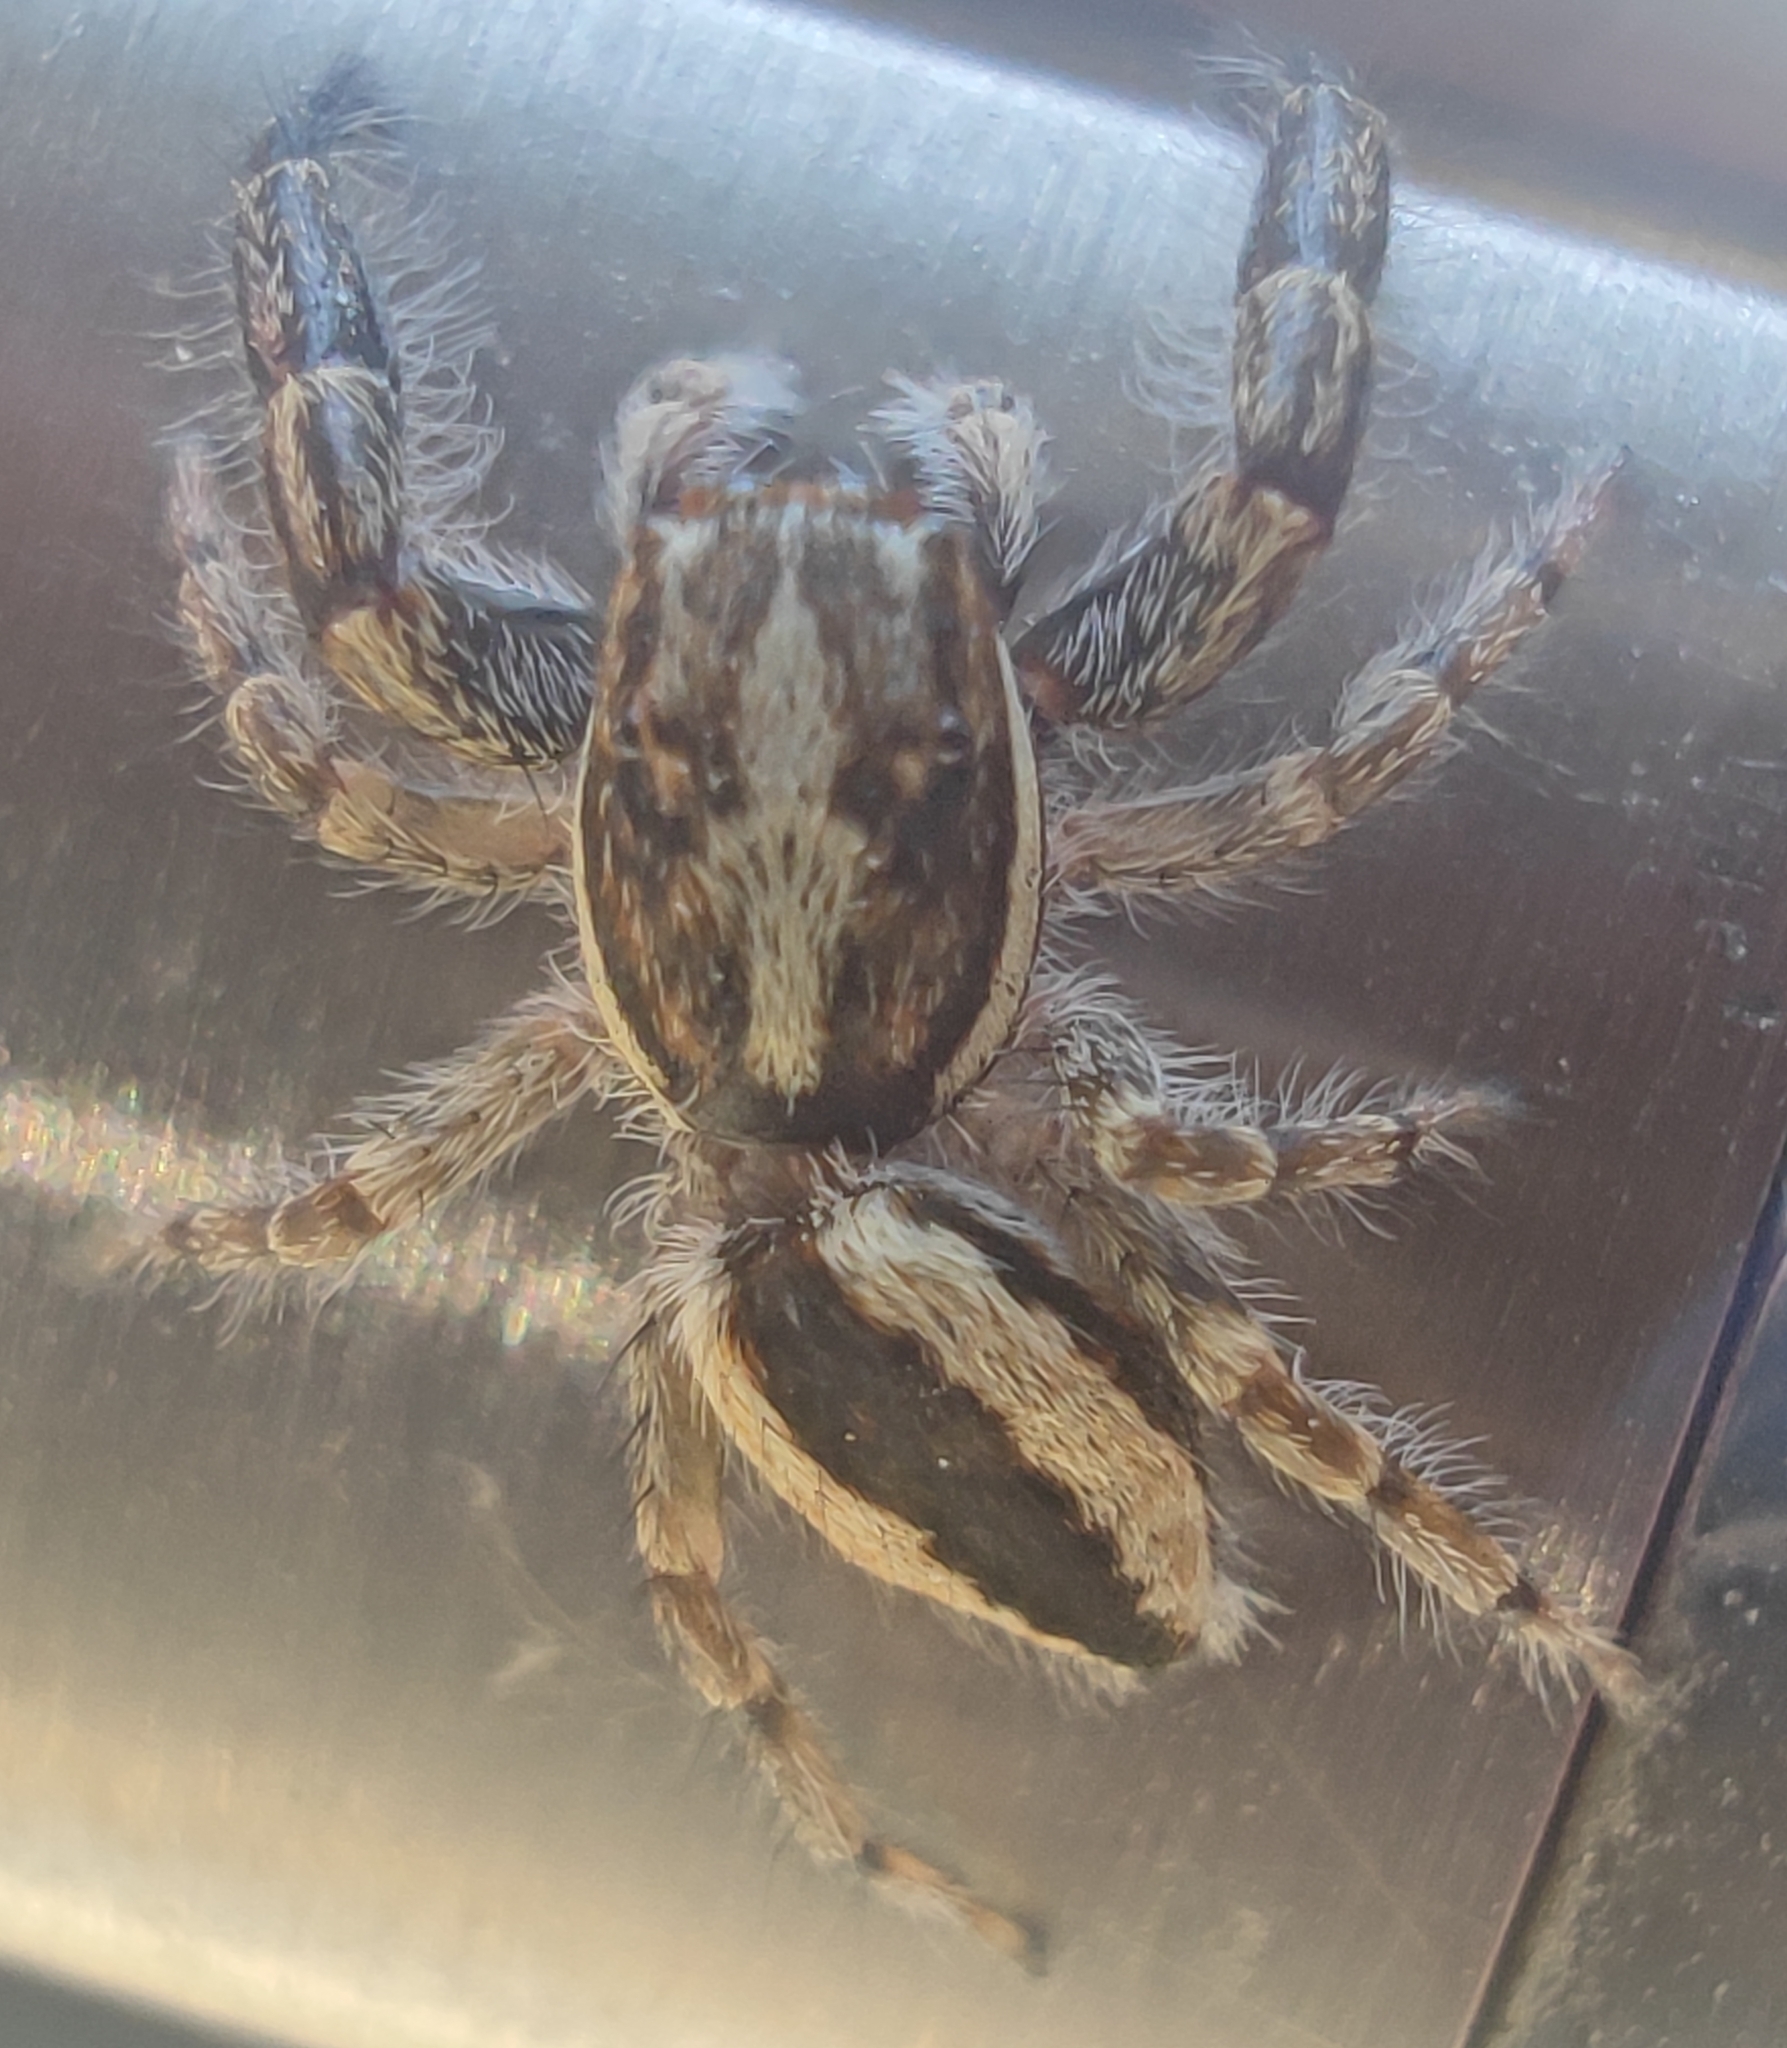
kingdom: Animalia
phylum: Arthropoda
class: Arachnida
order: Araneae
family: Salticidae
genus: Pseudicius
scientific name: Pseudicius encarpatus
